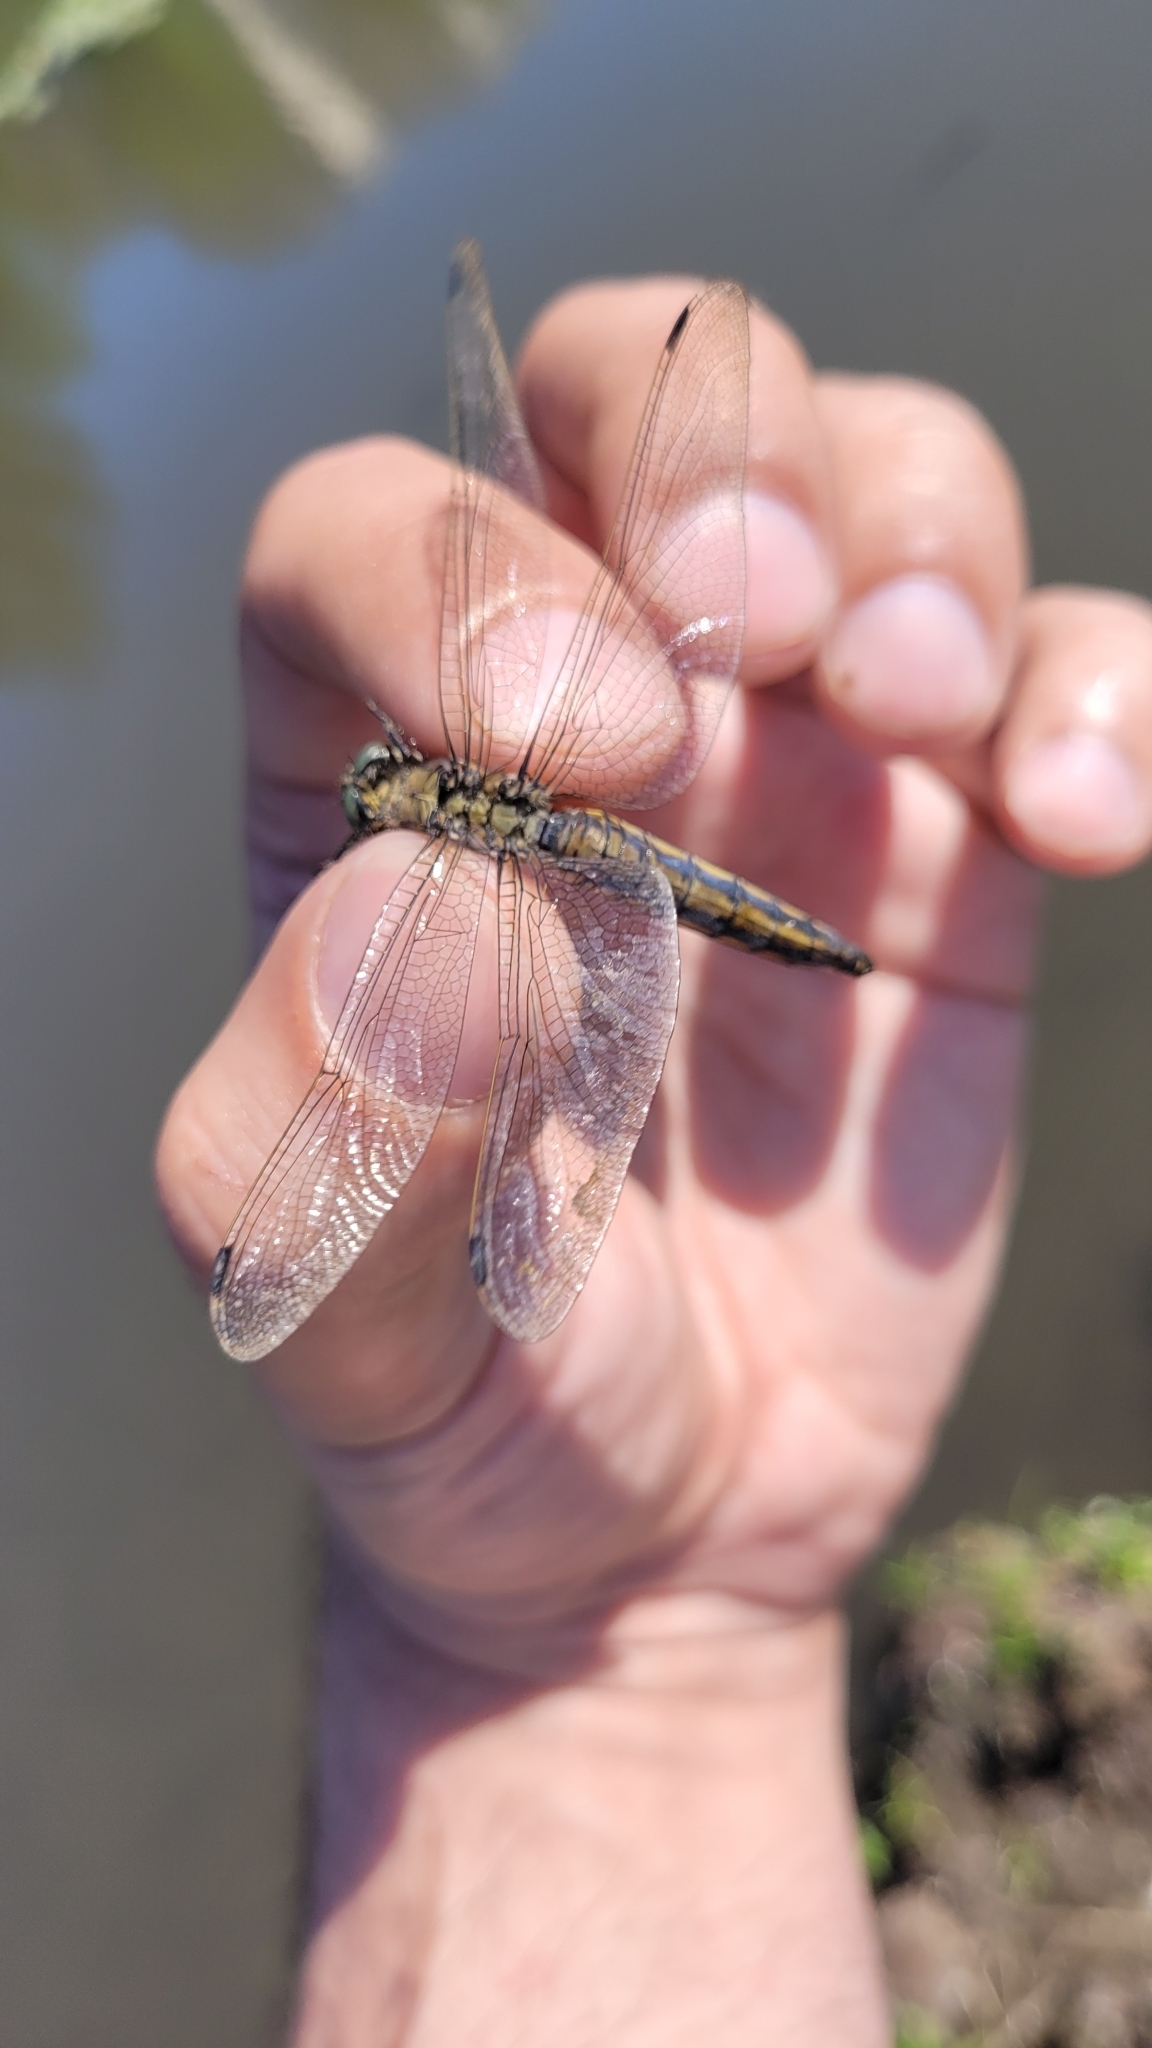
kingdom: Animalia
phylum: Arthropoda
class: Insecta
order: Odonata
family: Libellulidae
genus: Orthetrum
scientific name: Orthetrum cancellatum
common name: Black-tailed skimmer
